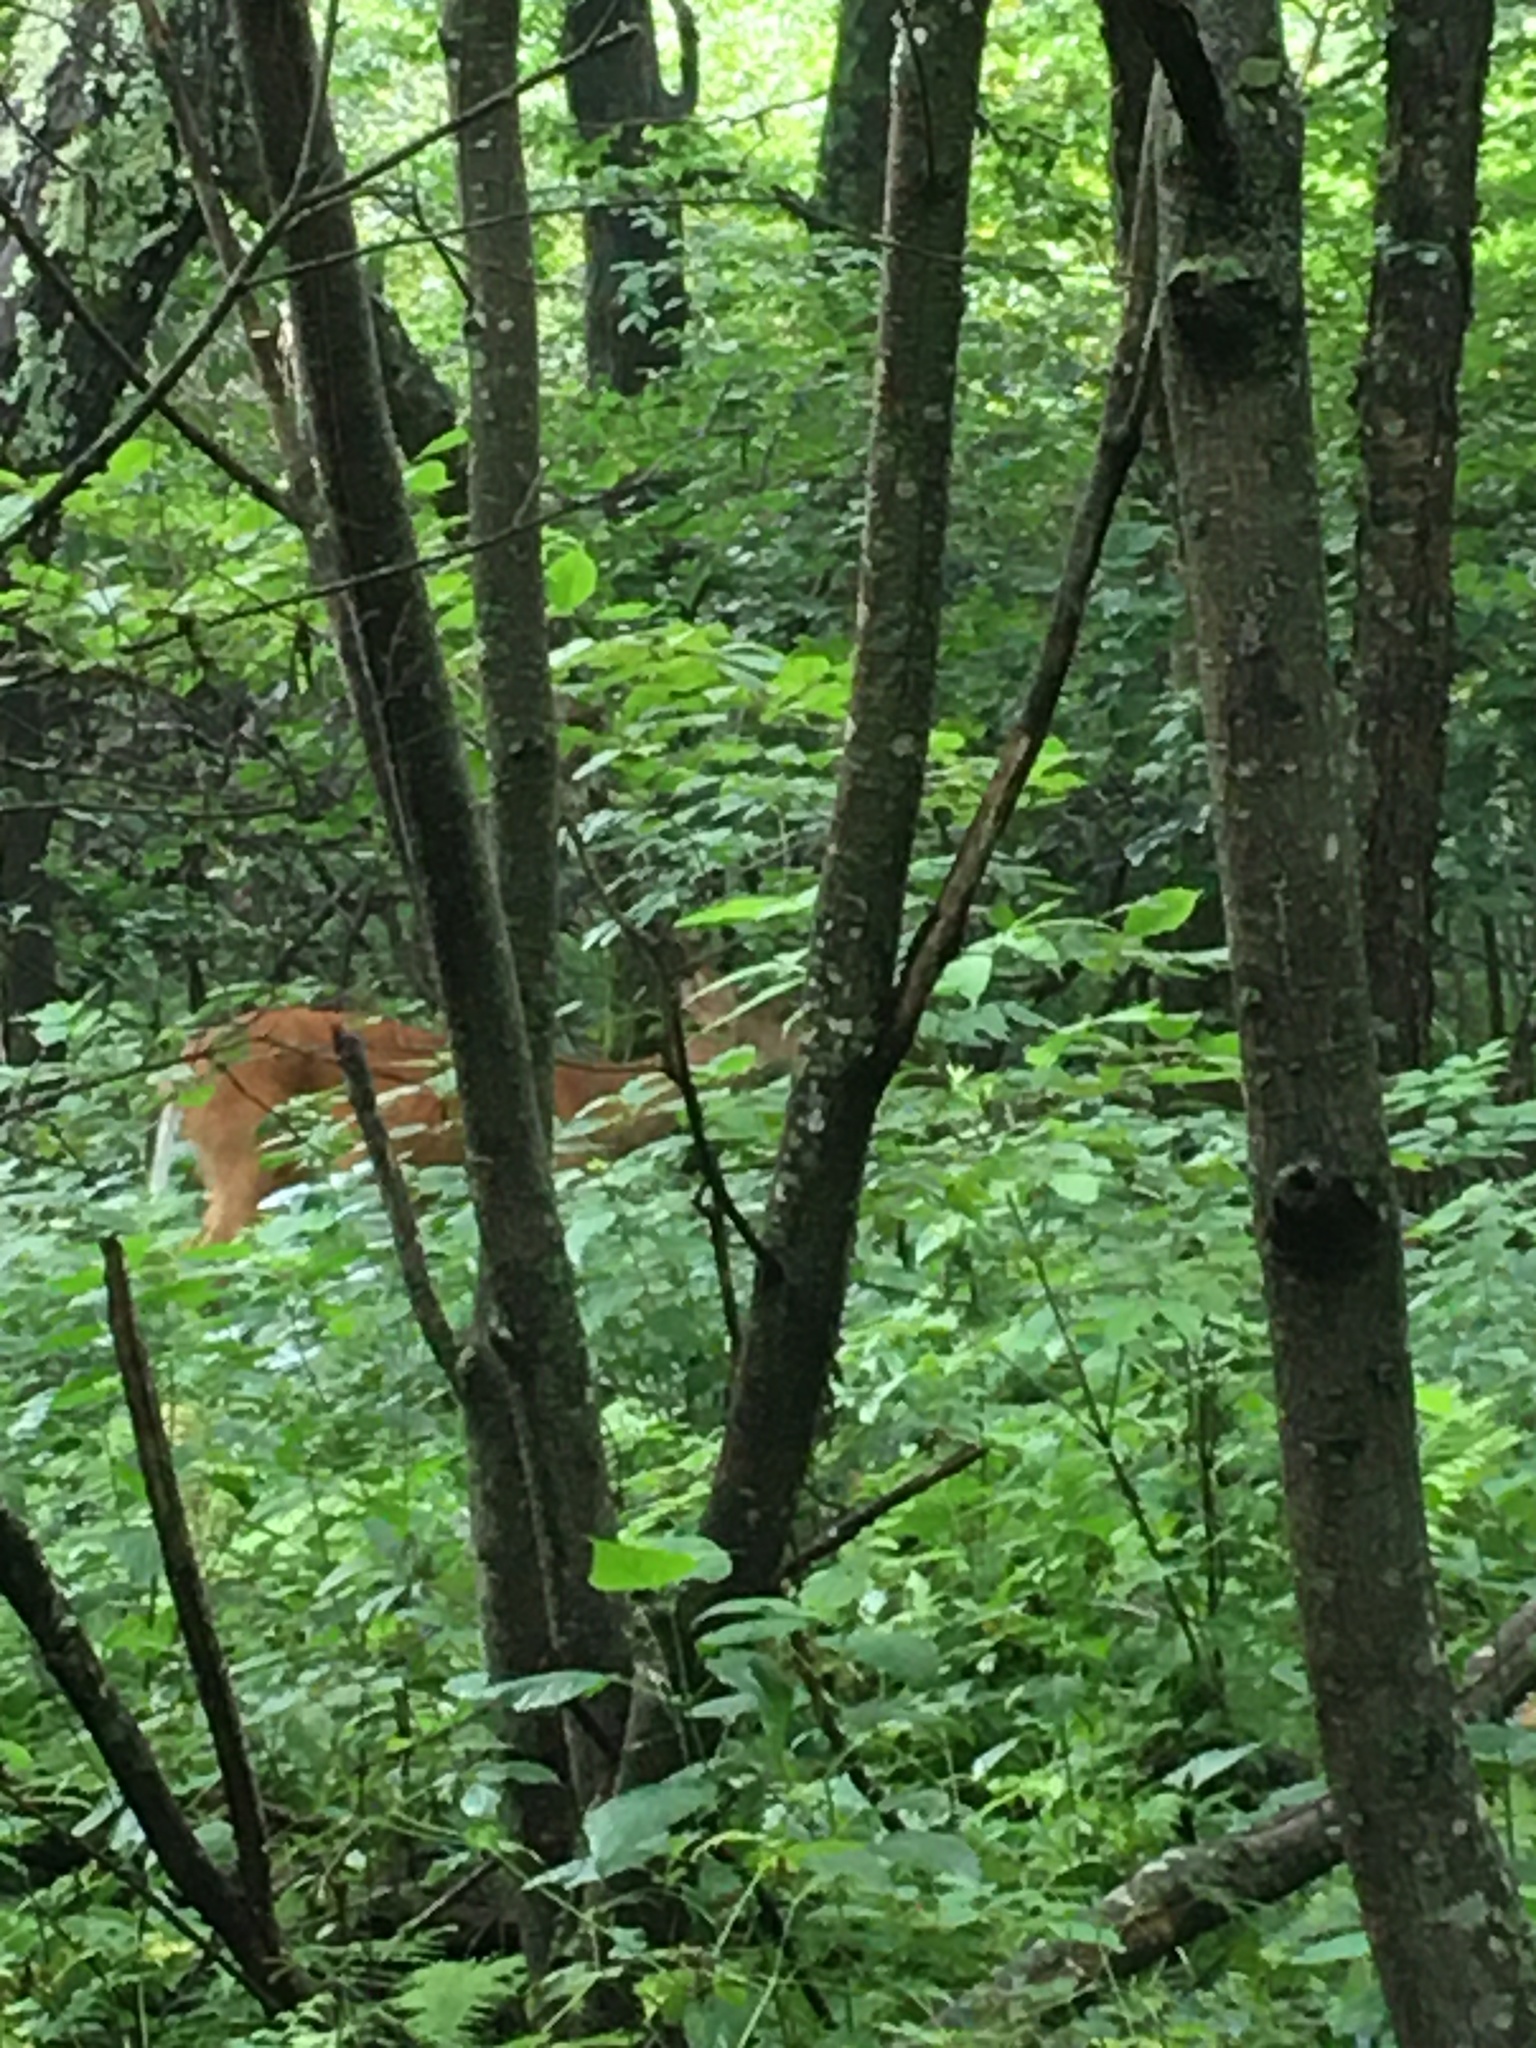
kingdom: Animalia
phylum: Chordata
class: Mammalia
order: Artiodactyla
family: Cervidae
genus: Odocoileus
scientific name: Odocoileus virginianus
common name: White-tailed deer
